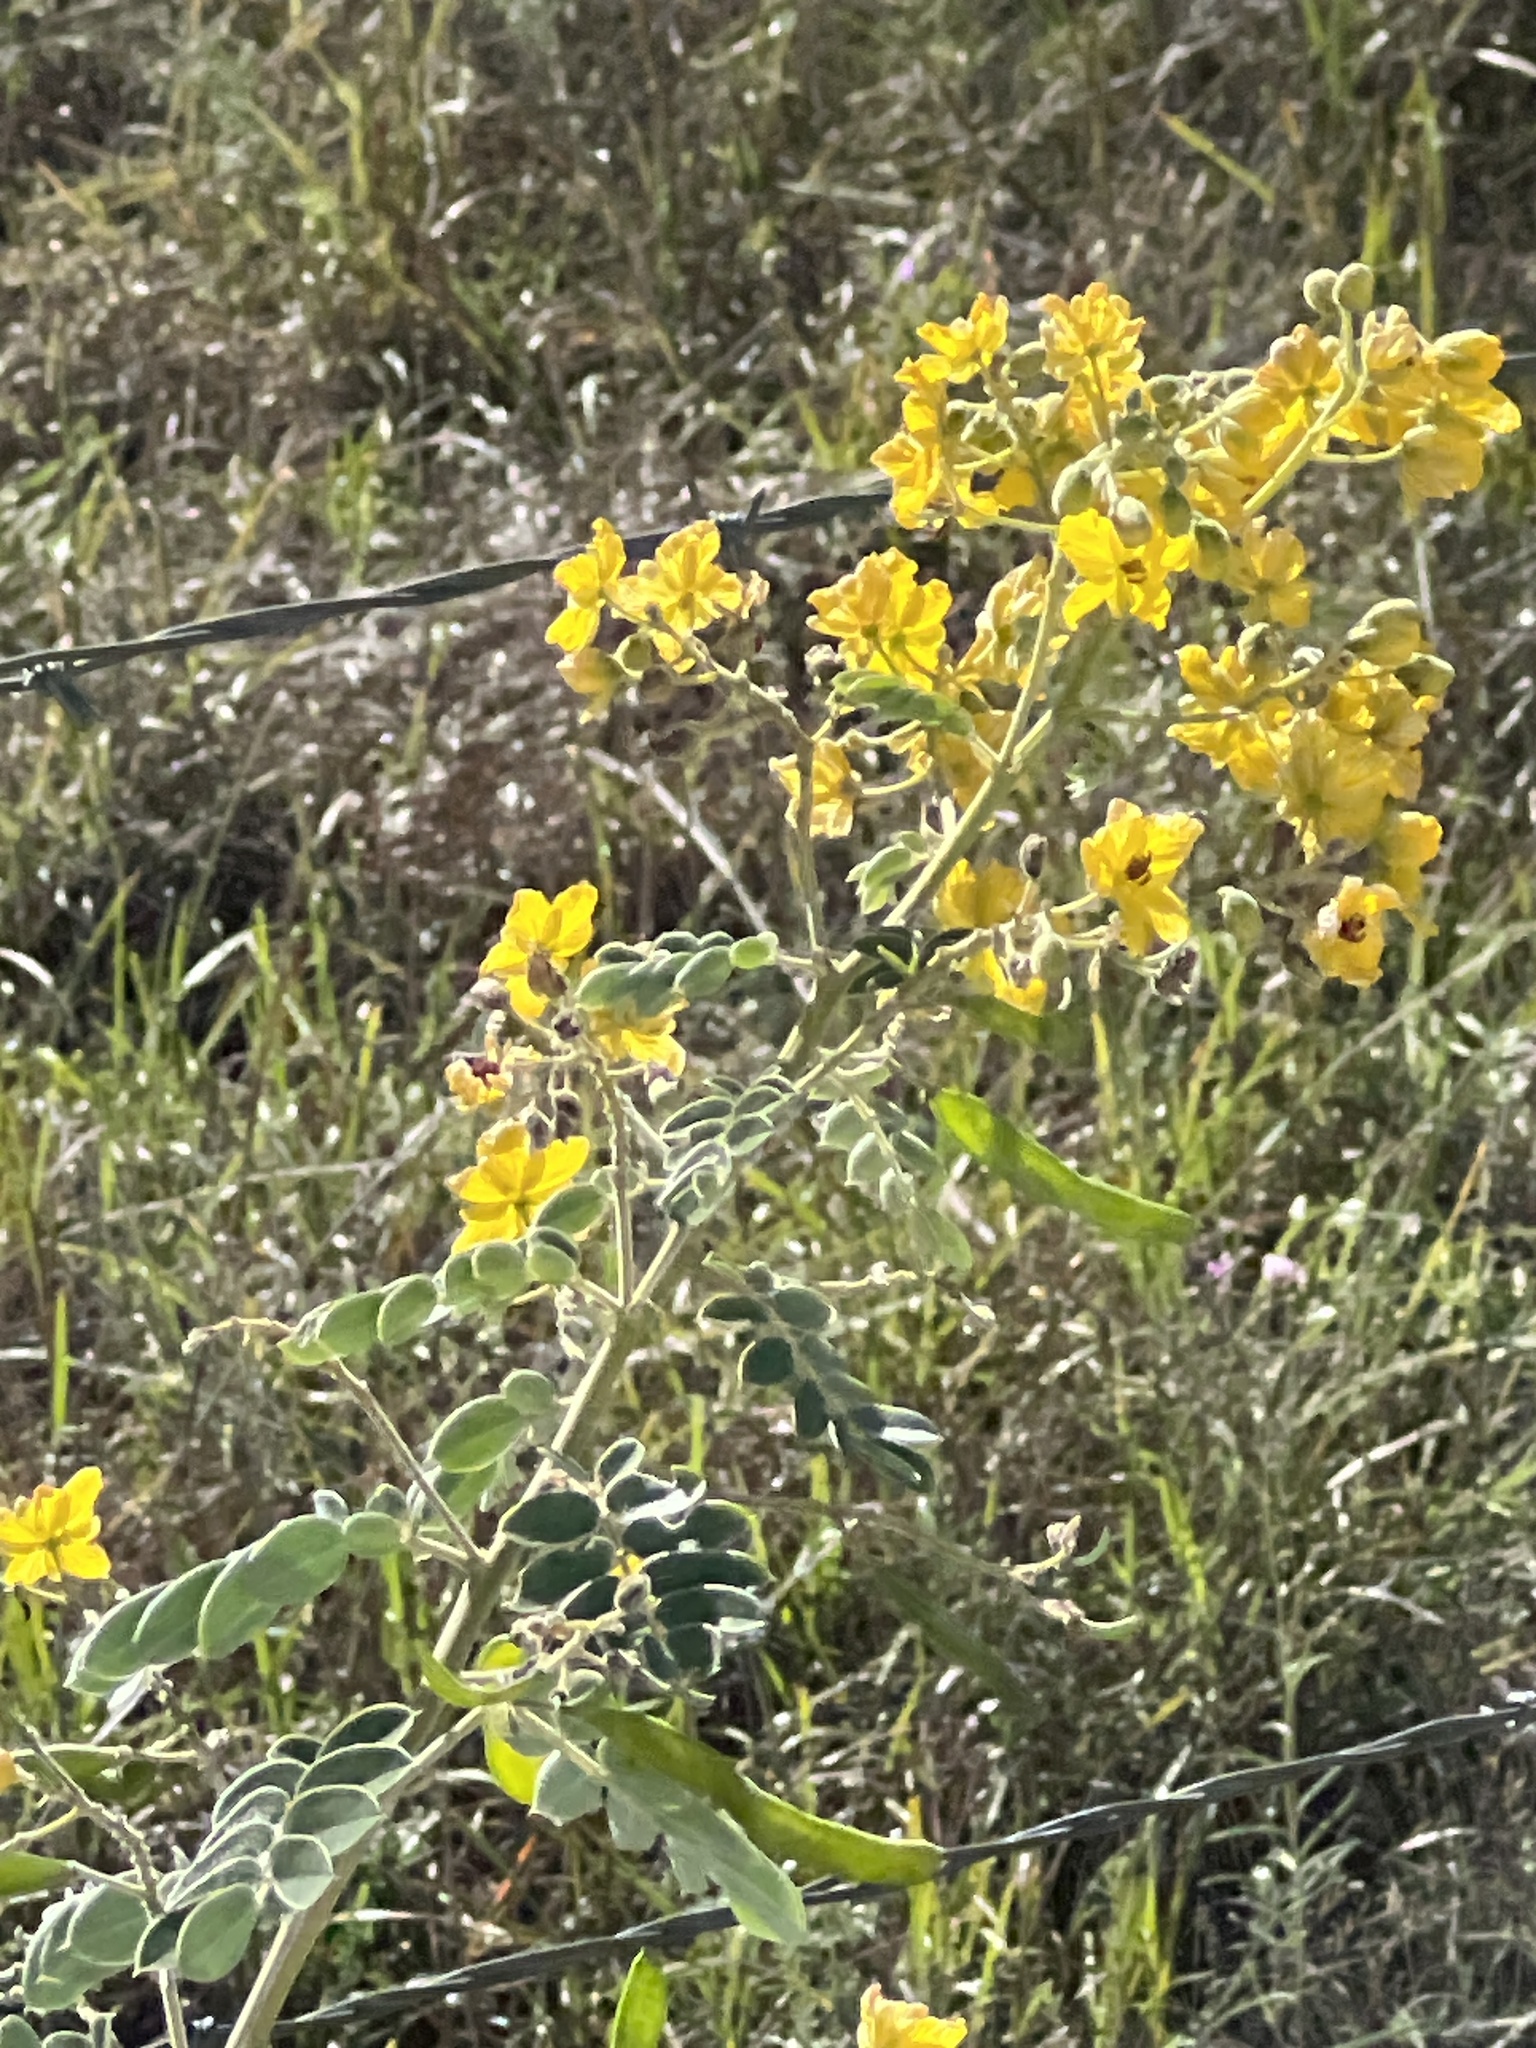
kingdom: Plantae
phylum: Tracheophyta
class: Magnoliopsida
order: Fabales
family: Fabaceae
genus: Senna
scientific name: Senna lindheimeriana
